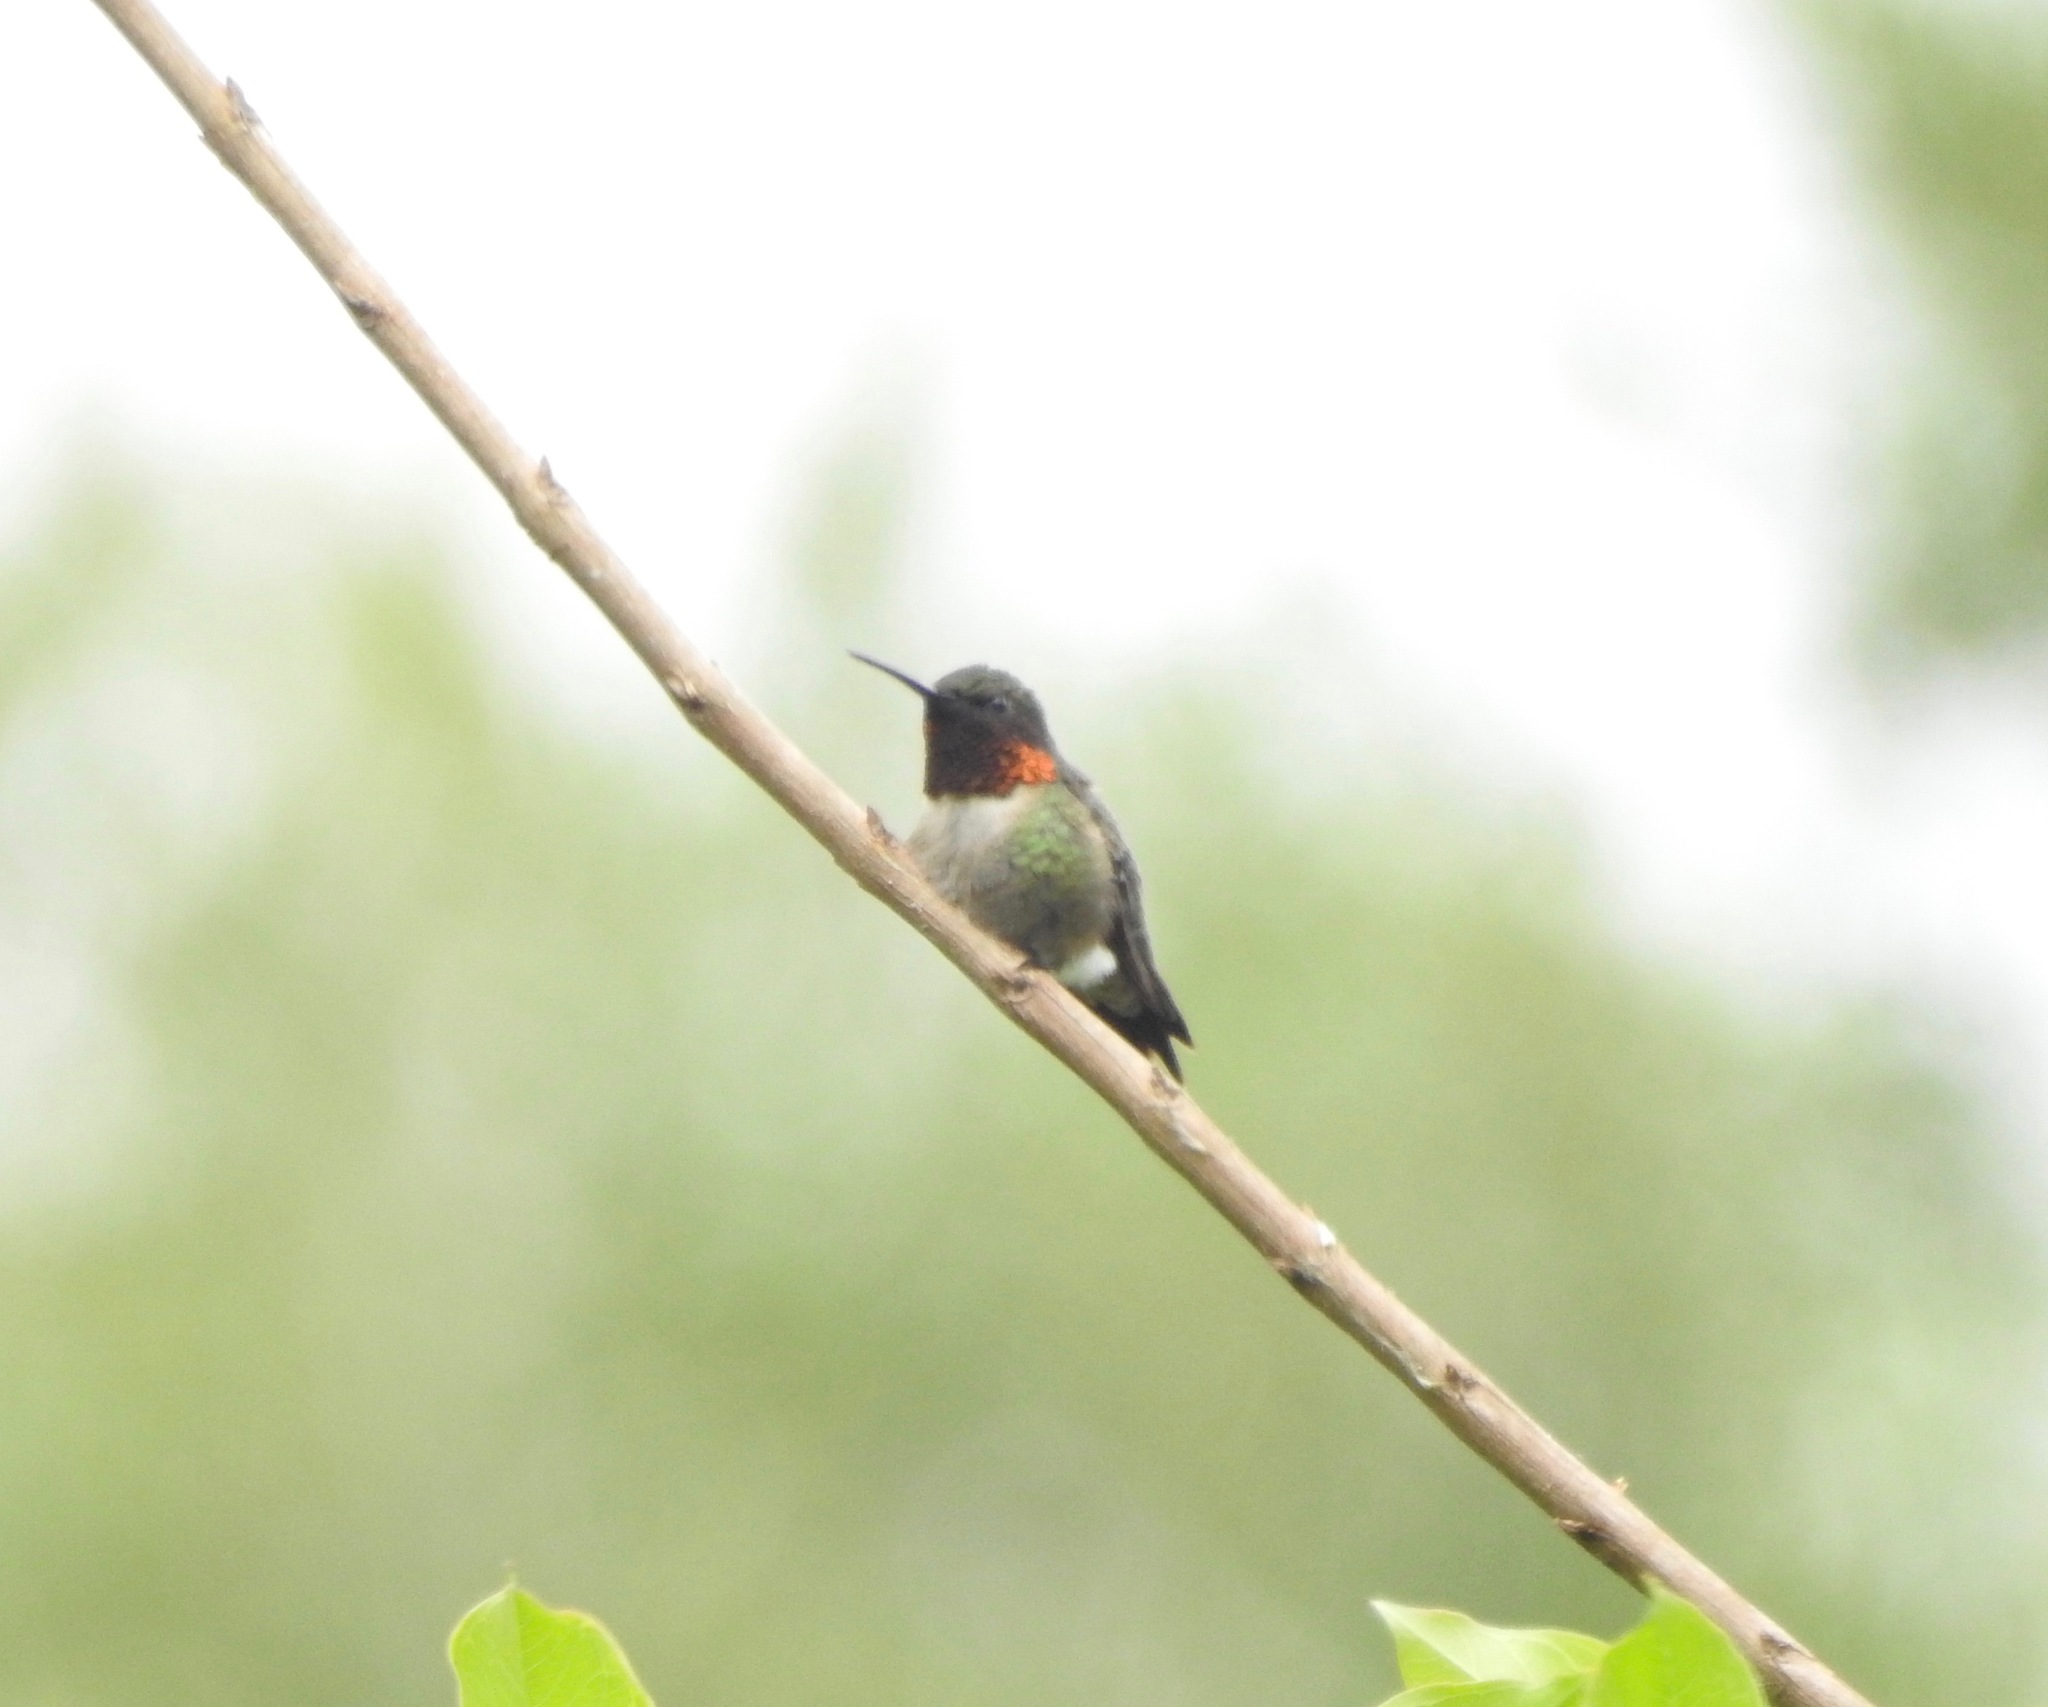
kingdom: Animalia
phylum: Chordata
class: Aves
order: Apodiformes
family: Trochilidae
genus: Archilochus
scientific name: Archilochus colubris
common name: Ruby-throated hummingbird
